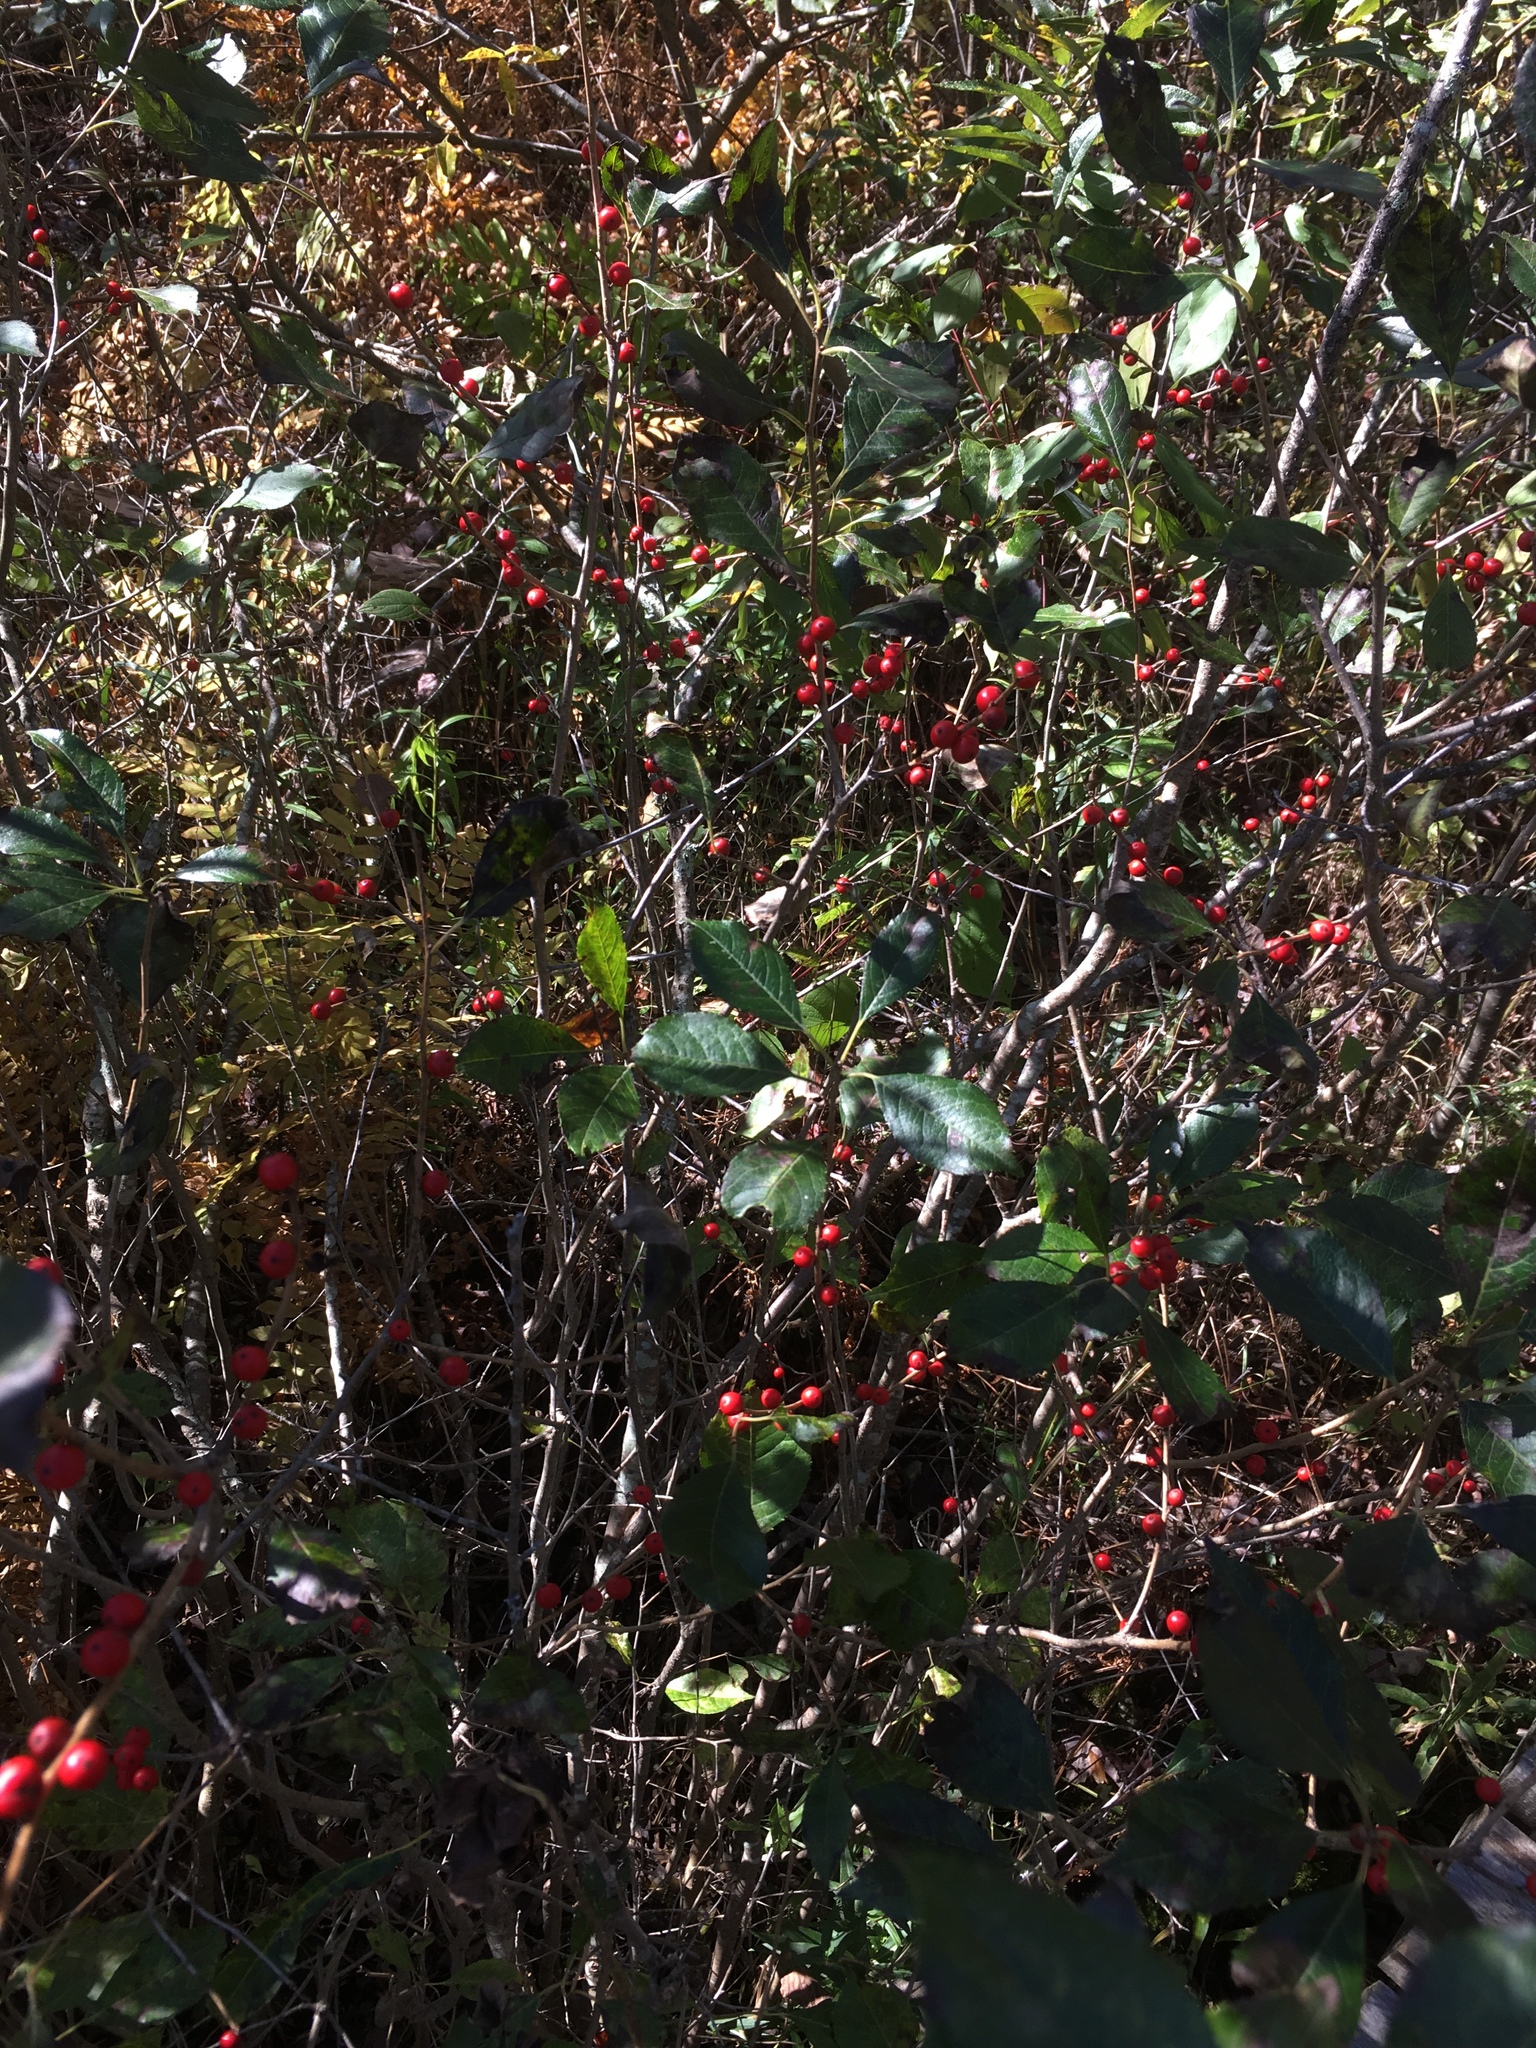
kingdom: Plantae
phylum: Tracheophyta
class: Magnoliopsida
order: Aquifoliales
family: Aquifoliaceae
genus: Ilex
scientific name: Ilex verticillata
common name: Virginia winterberry
